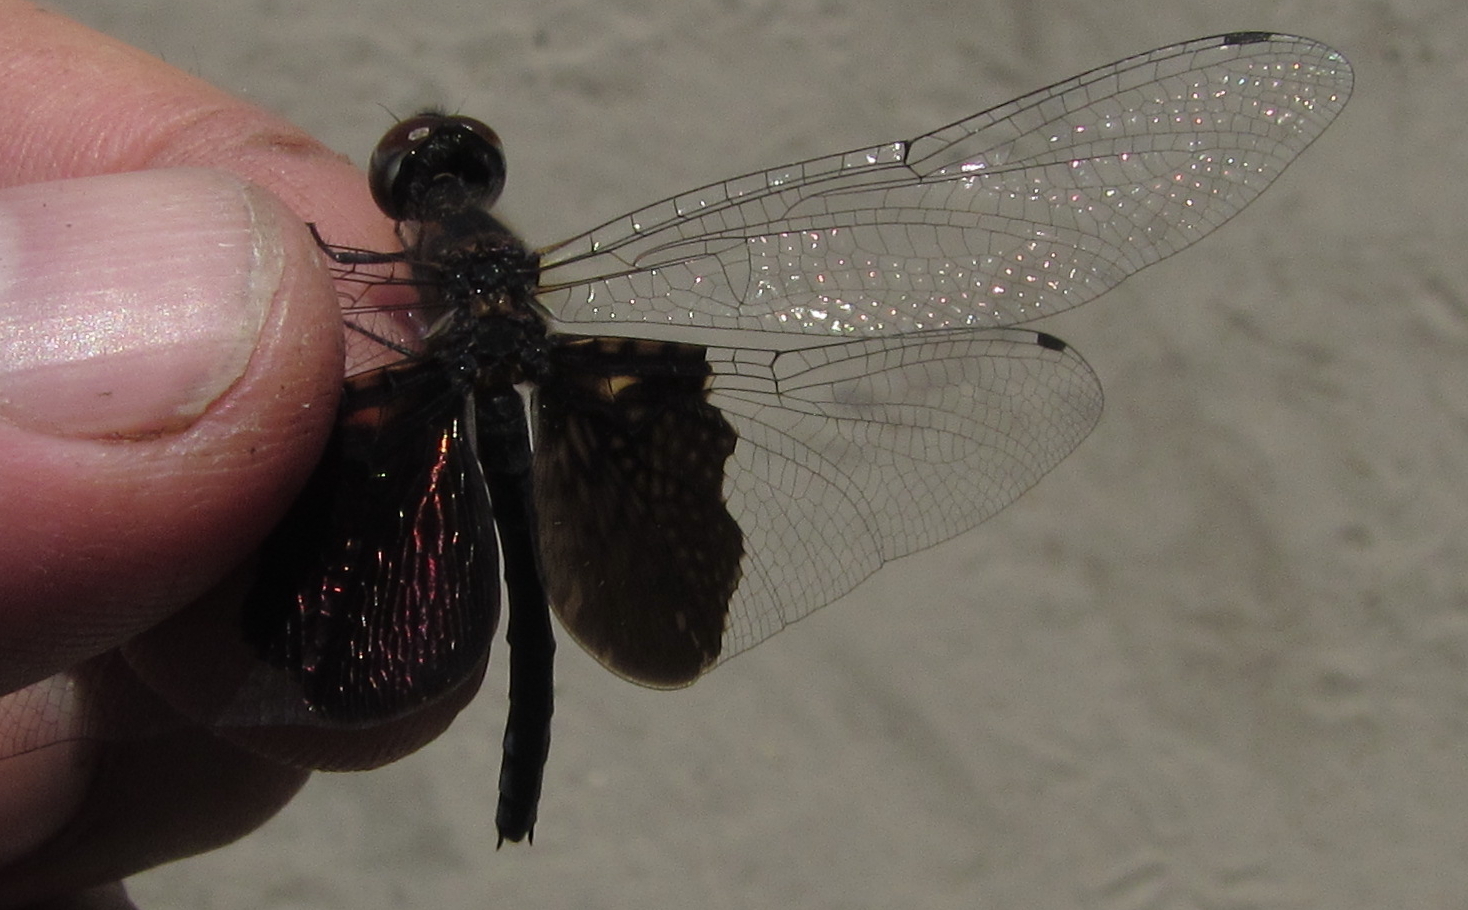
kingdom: Animalia
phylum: Arthropoda
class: Insecta
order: Odonata
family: Libellulidae
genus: Rhyothemis
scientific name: Rhyothemis semihyalina
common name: Phantom flutterer
